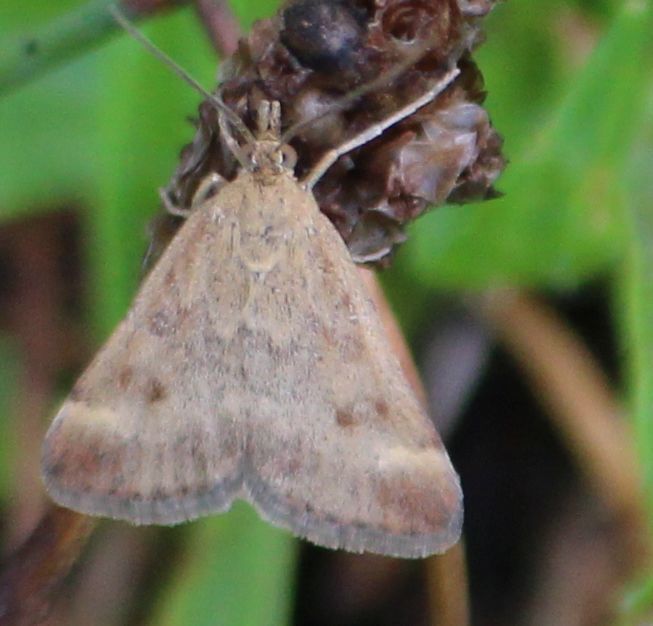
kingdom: Animalia
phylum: Arthropoda
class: Insecta
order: Lepidoptera
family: Crambidae
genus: Pyrausta
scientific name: Pyrausta despicata
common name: Straw-barred pearl
